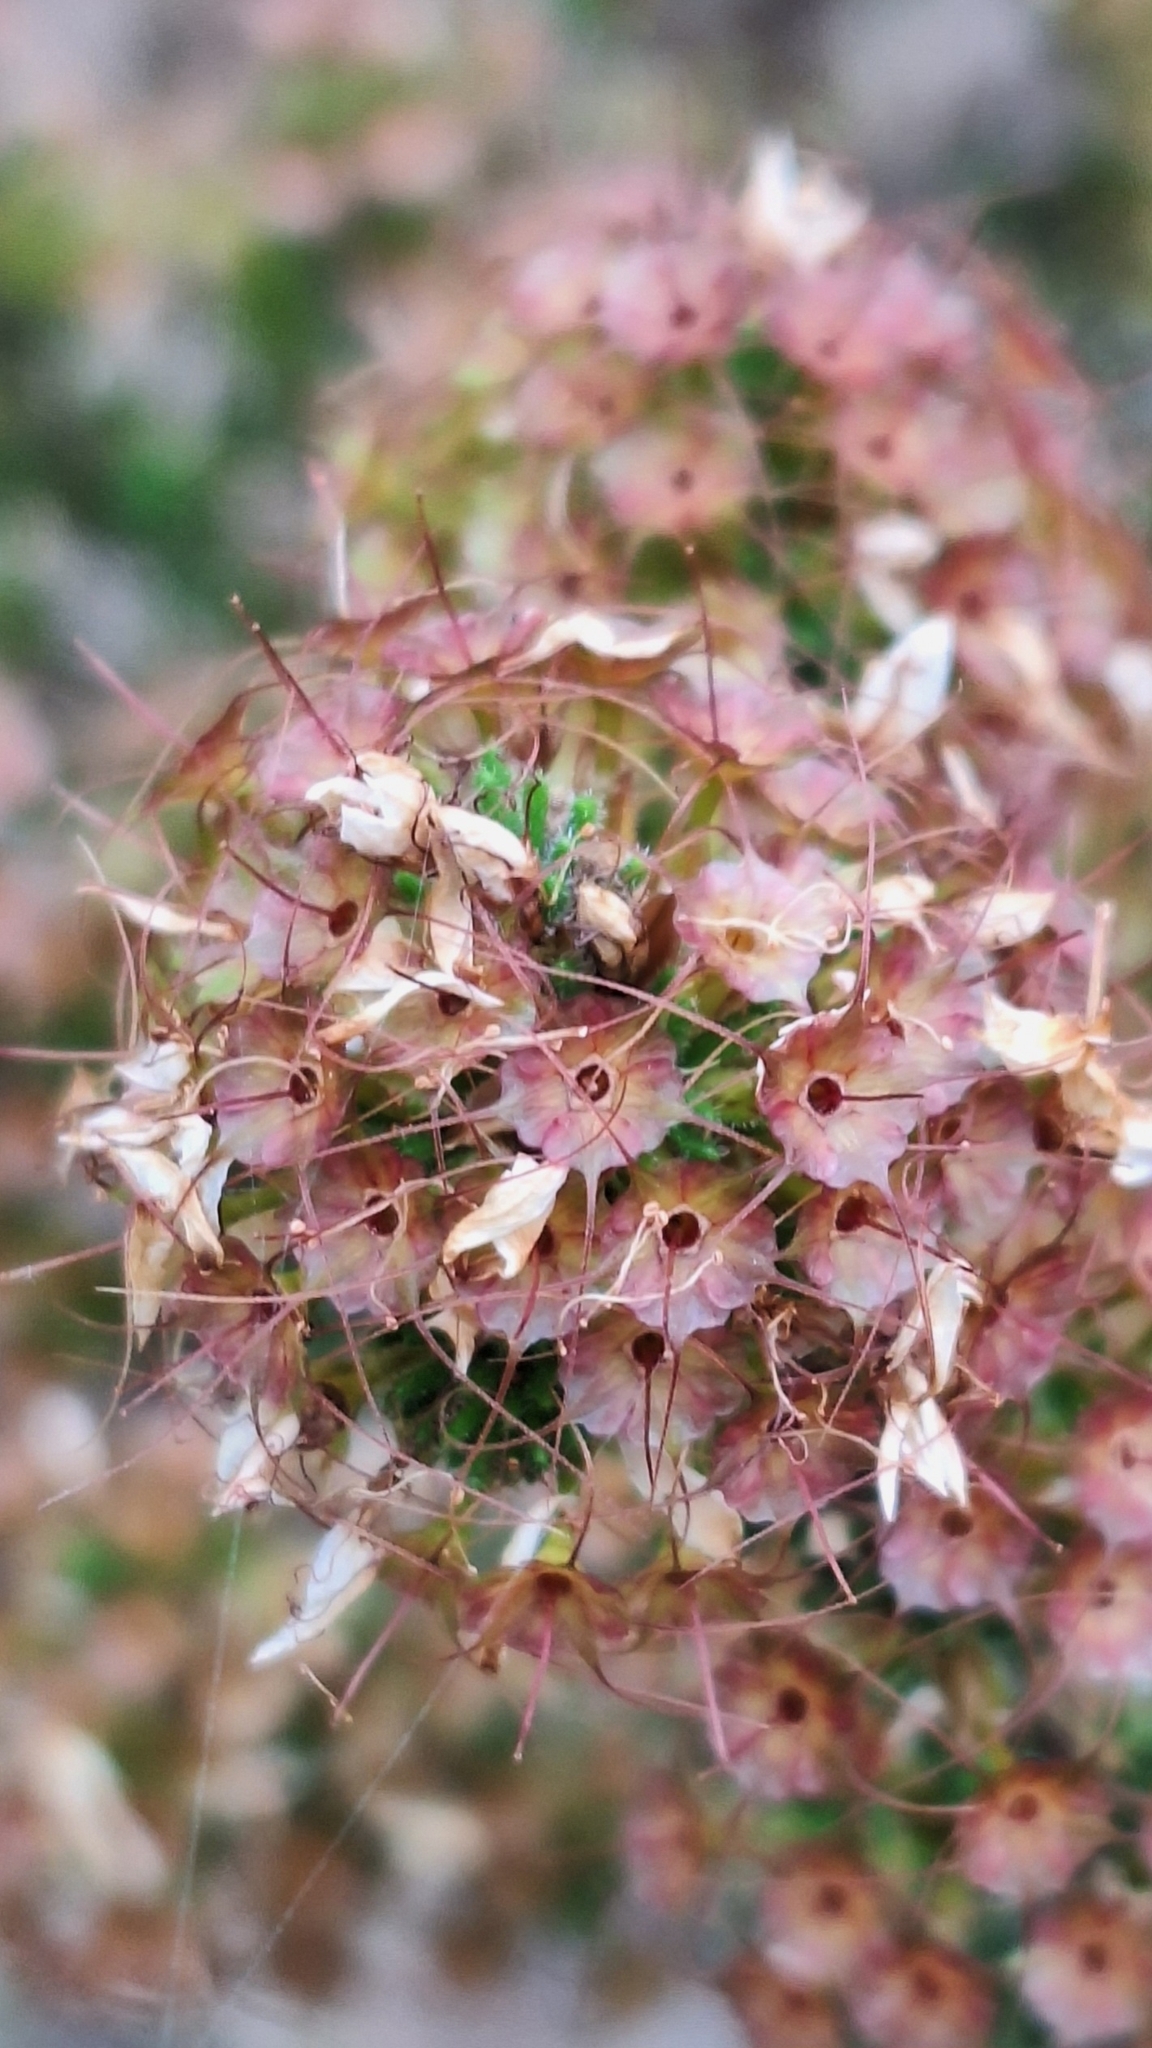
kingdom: Plantae
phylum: Tracheophyta
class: Magnoliopsida
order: Myrtales
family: Myrtaceae
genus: Calytrix
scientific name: Calytrix tetragona
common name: Common fringe myrtle
